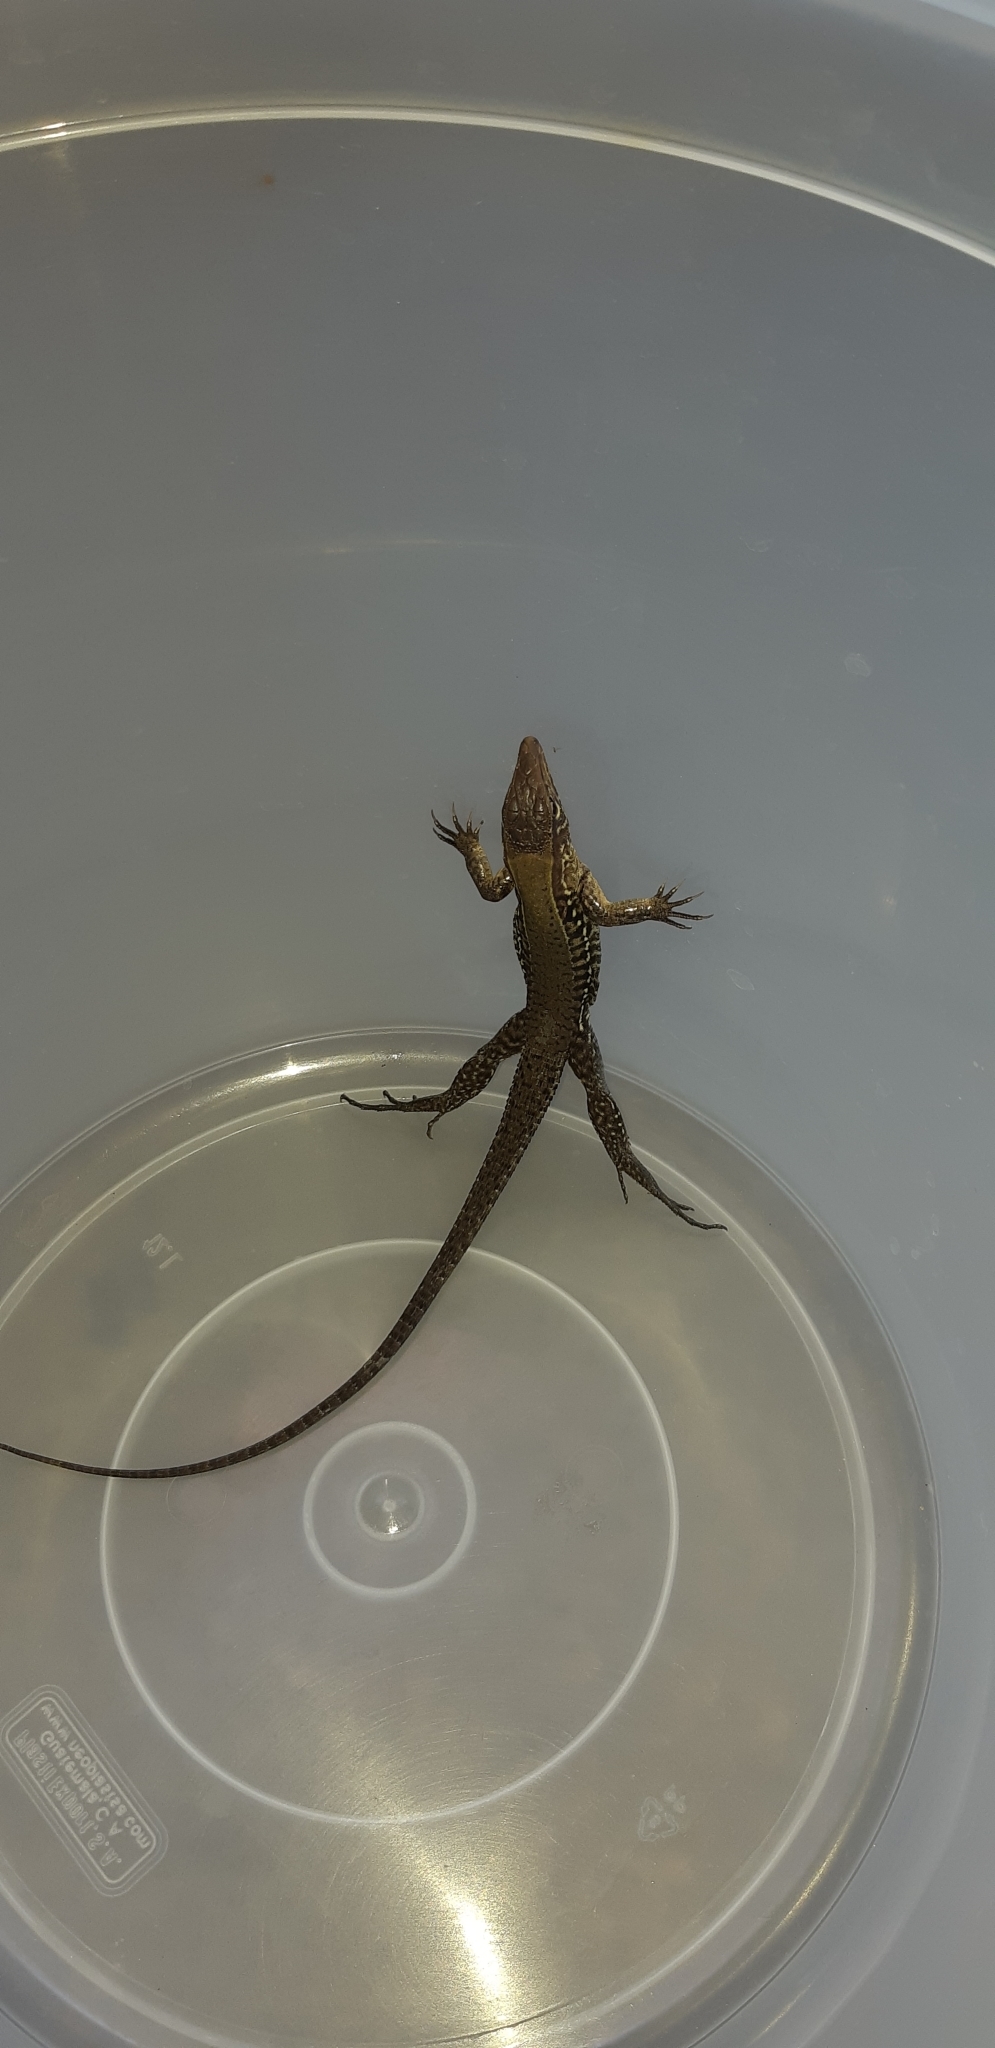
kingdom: Animalia
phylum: Chordata
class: Squamata
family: Teiidae
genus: Holcosus
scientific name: Holcosus undulatus
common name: Rainbow ameiva
